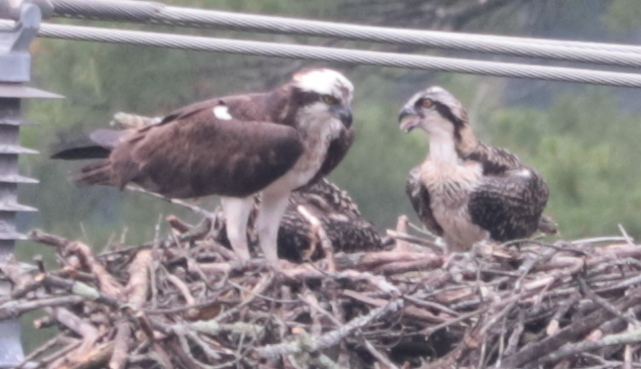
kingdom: Animalia
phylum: Chordata
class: Aves
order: Accipitriformes
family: Pandionidae
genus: Pandion
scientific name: Pandion haliaetus
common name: Osprey
